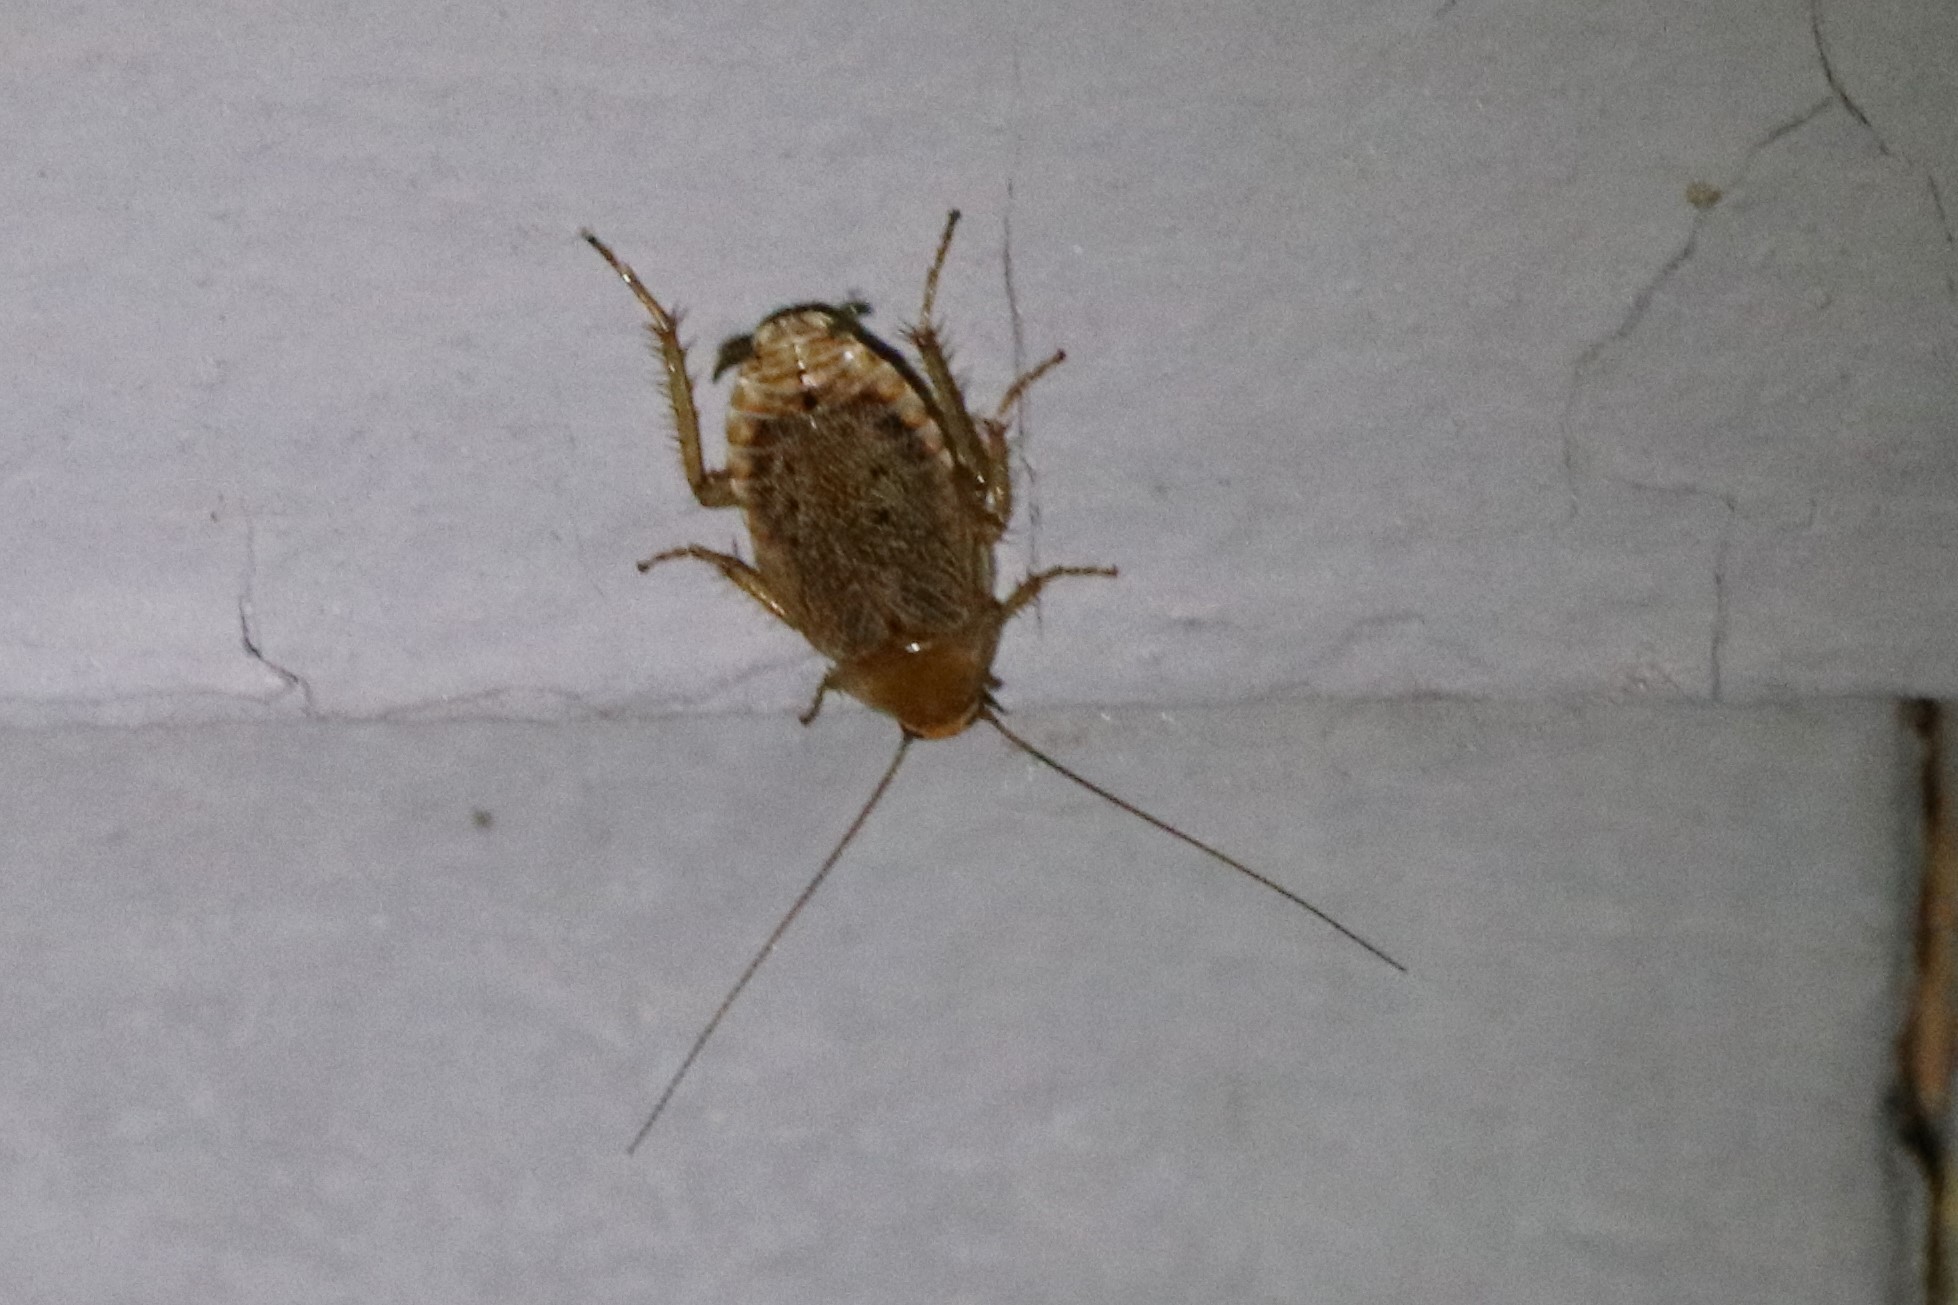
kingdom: Animalia
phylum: Arthropoda
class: Insecta
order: Blattodea
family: Ectobiidae
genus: Ectobius
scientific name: Ectobius lapponicus
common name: Dusky cockroach
